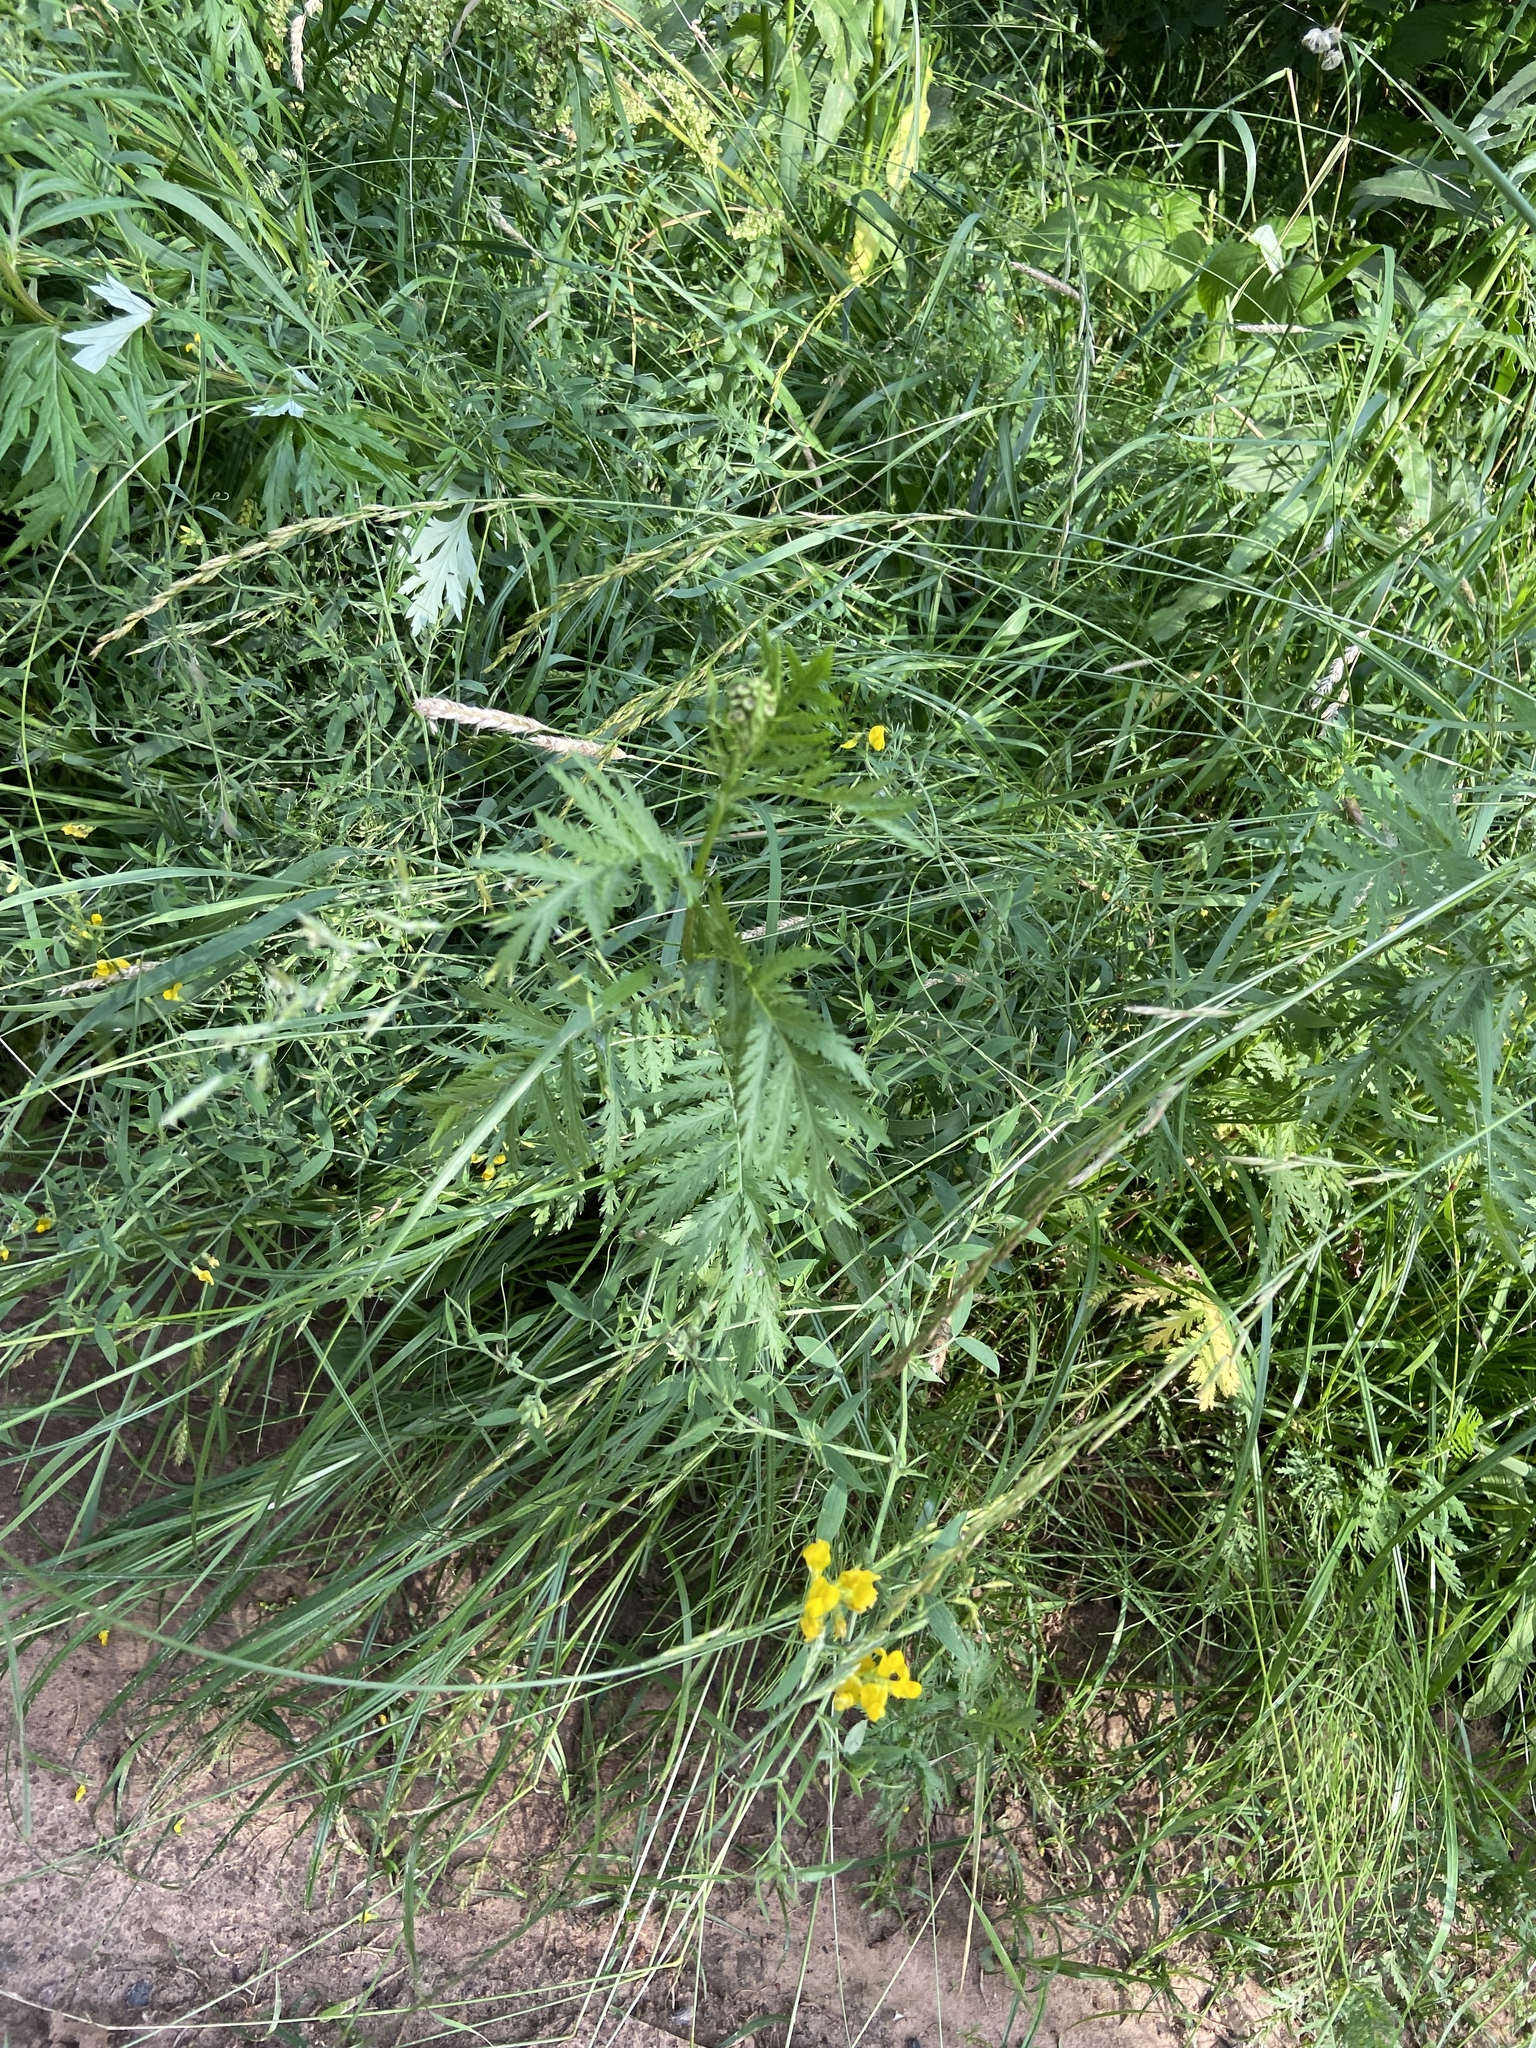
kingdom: Plantae
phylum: Tracheophyta
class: Magnoliopsida
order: Fabales
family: Fabaceae
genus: Lathyrus
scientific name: Lathyrus pratensis
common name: Meadow vetchling
